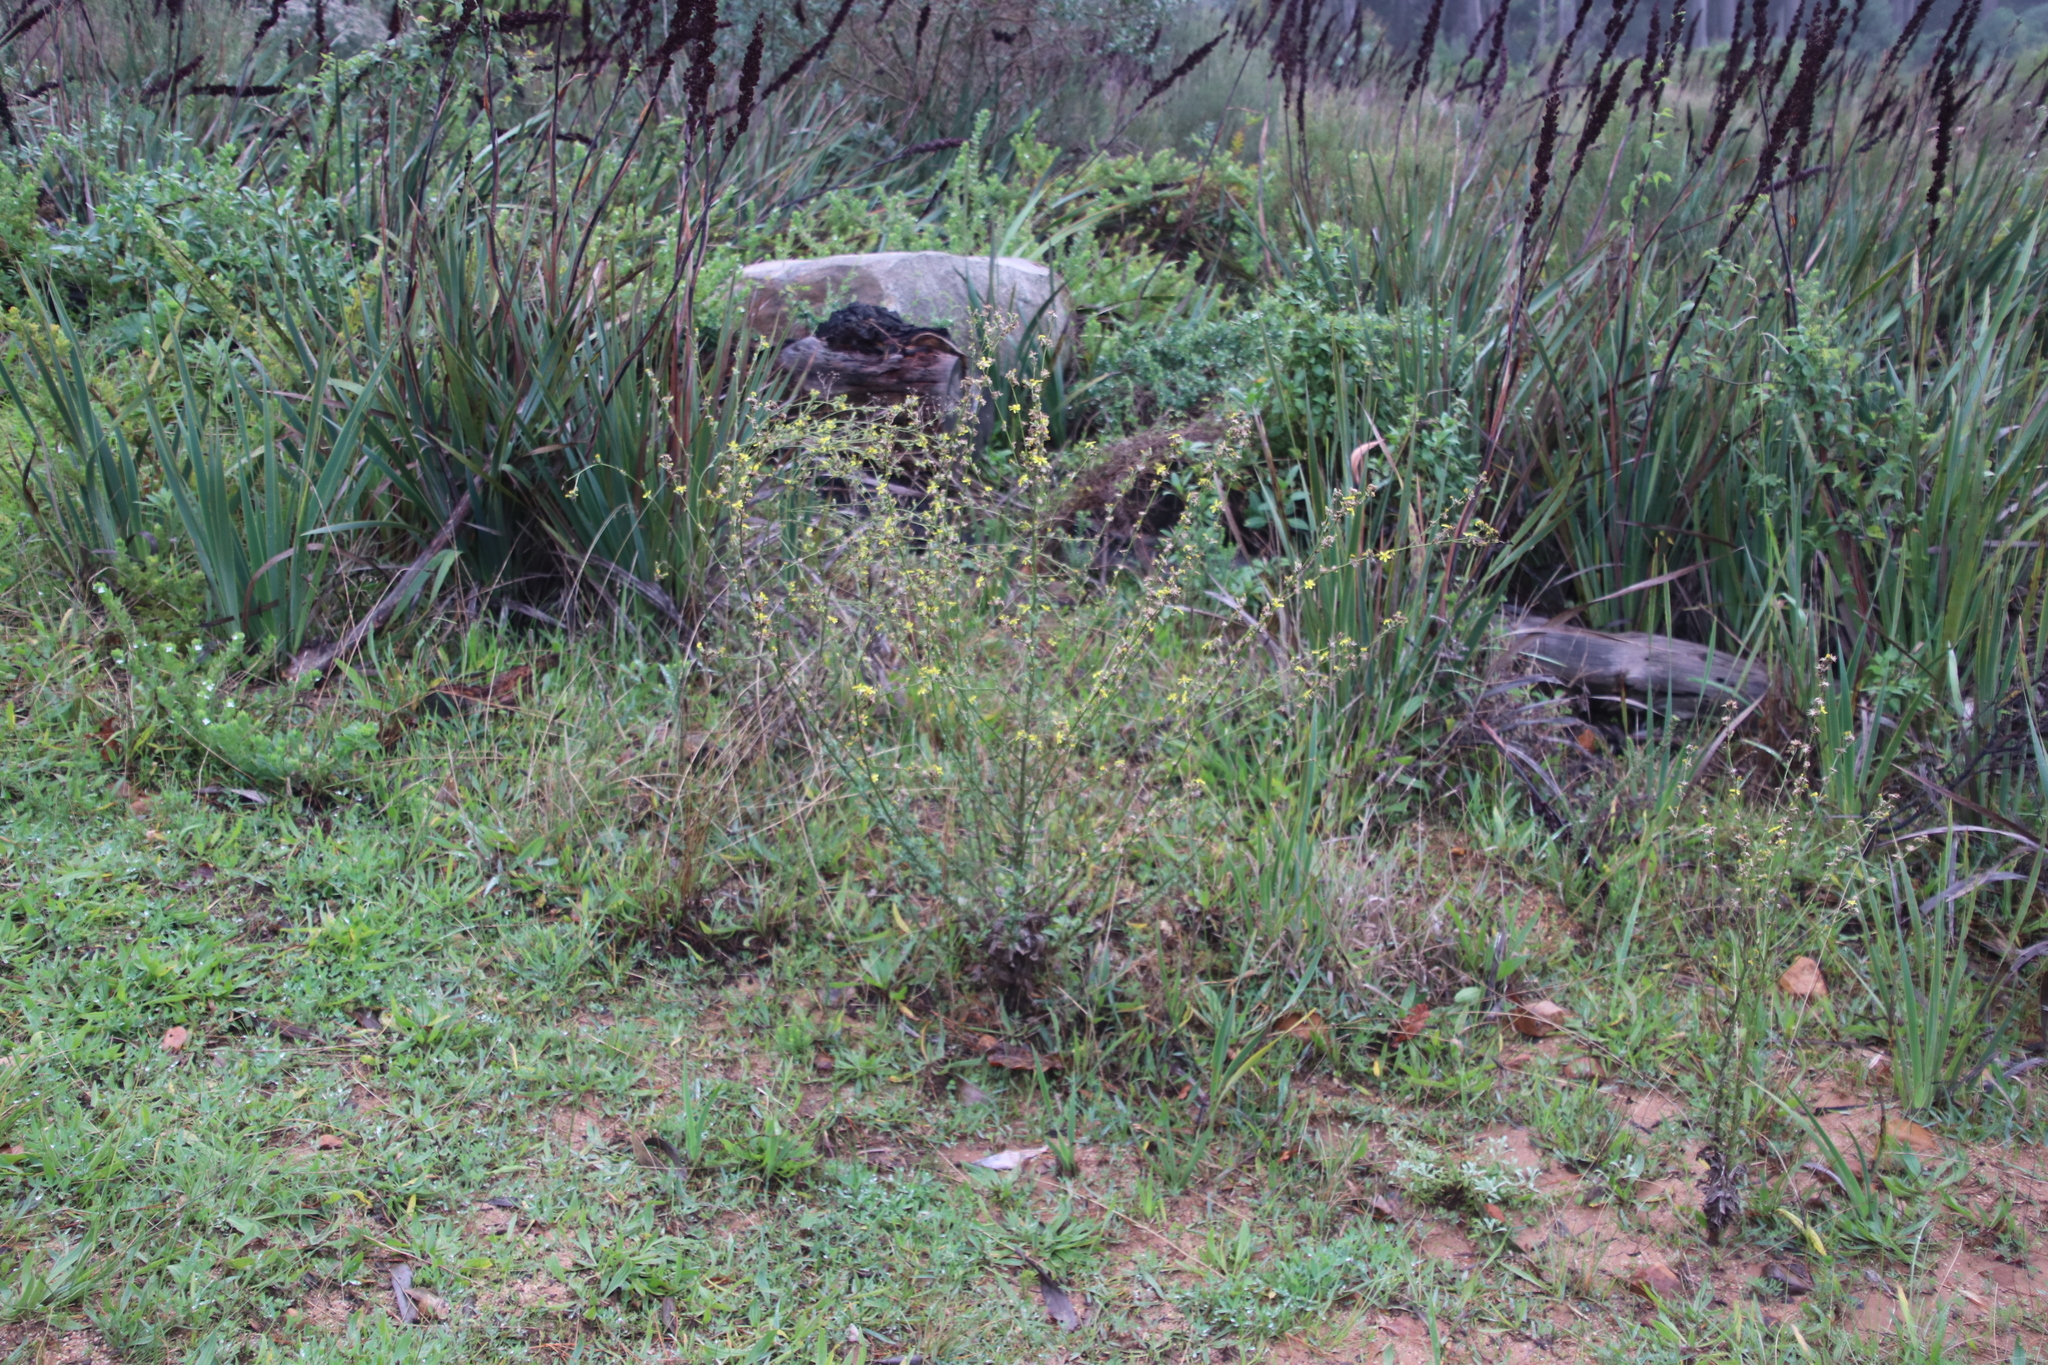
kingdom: Plantae
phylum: Tracheophyta
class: Magnoliopsida
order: Asterales
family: Asteraceae
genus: Senecio
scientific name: Senecio pubigerus
